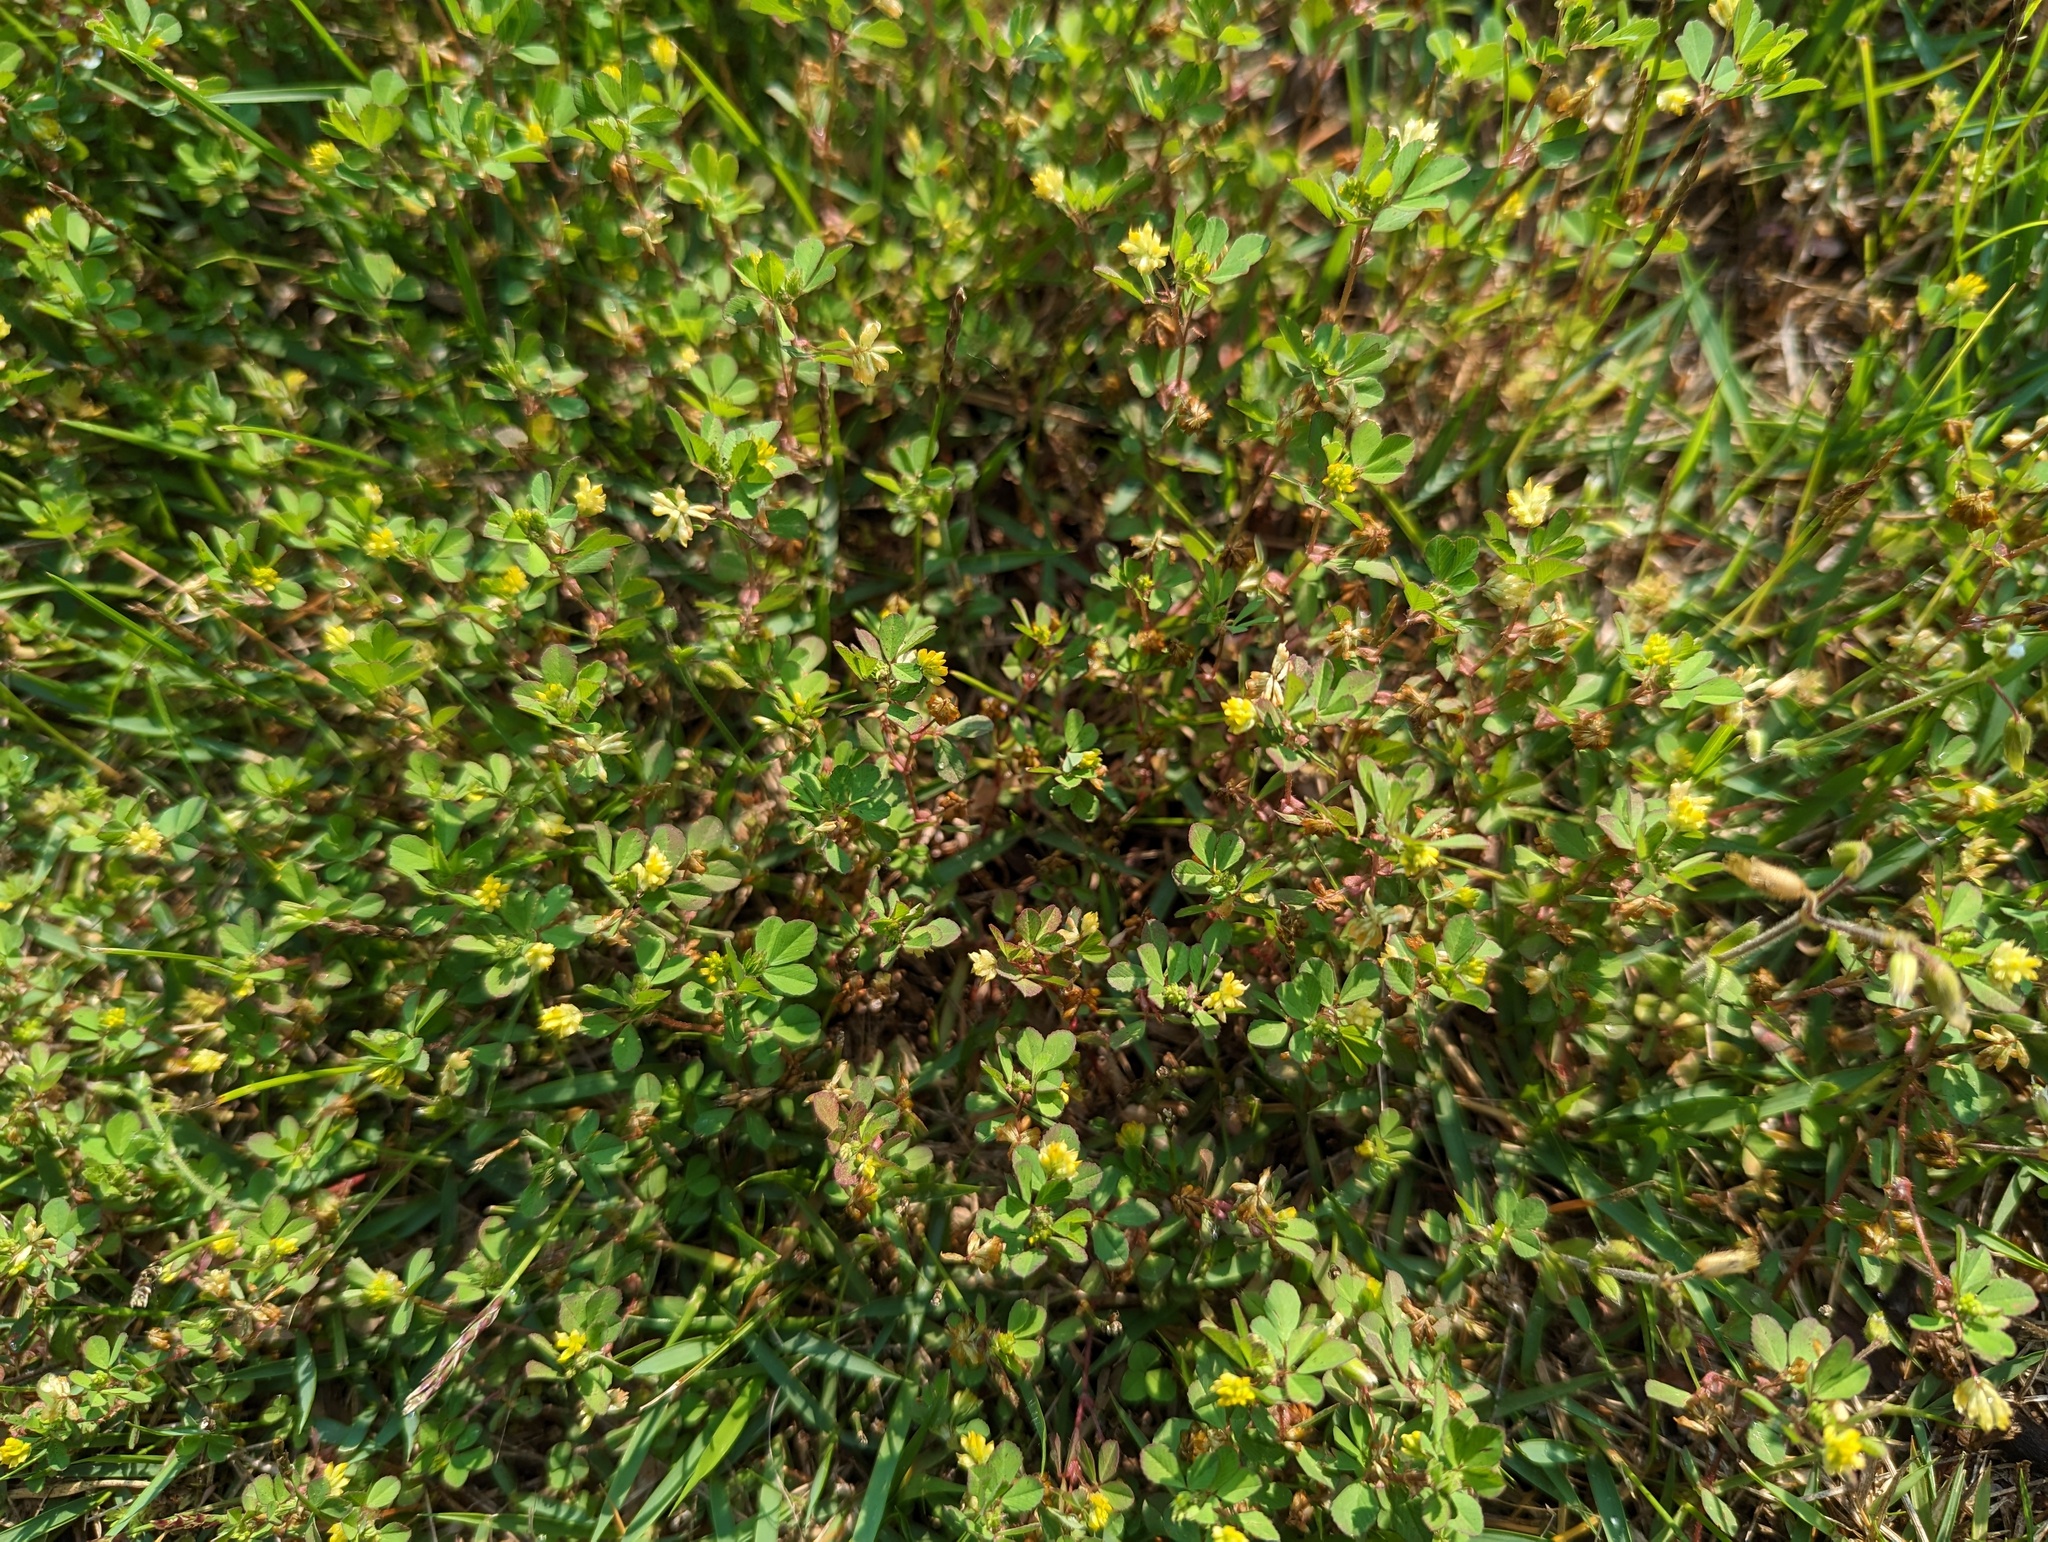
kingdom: Plantae
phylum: Tracheophyta
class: Magnoliopsida
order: Fabales
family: Fabaceae
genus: Trifolium
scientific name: Trifolium dubium
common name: Suckling clover
